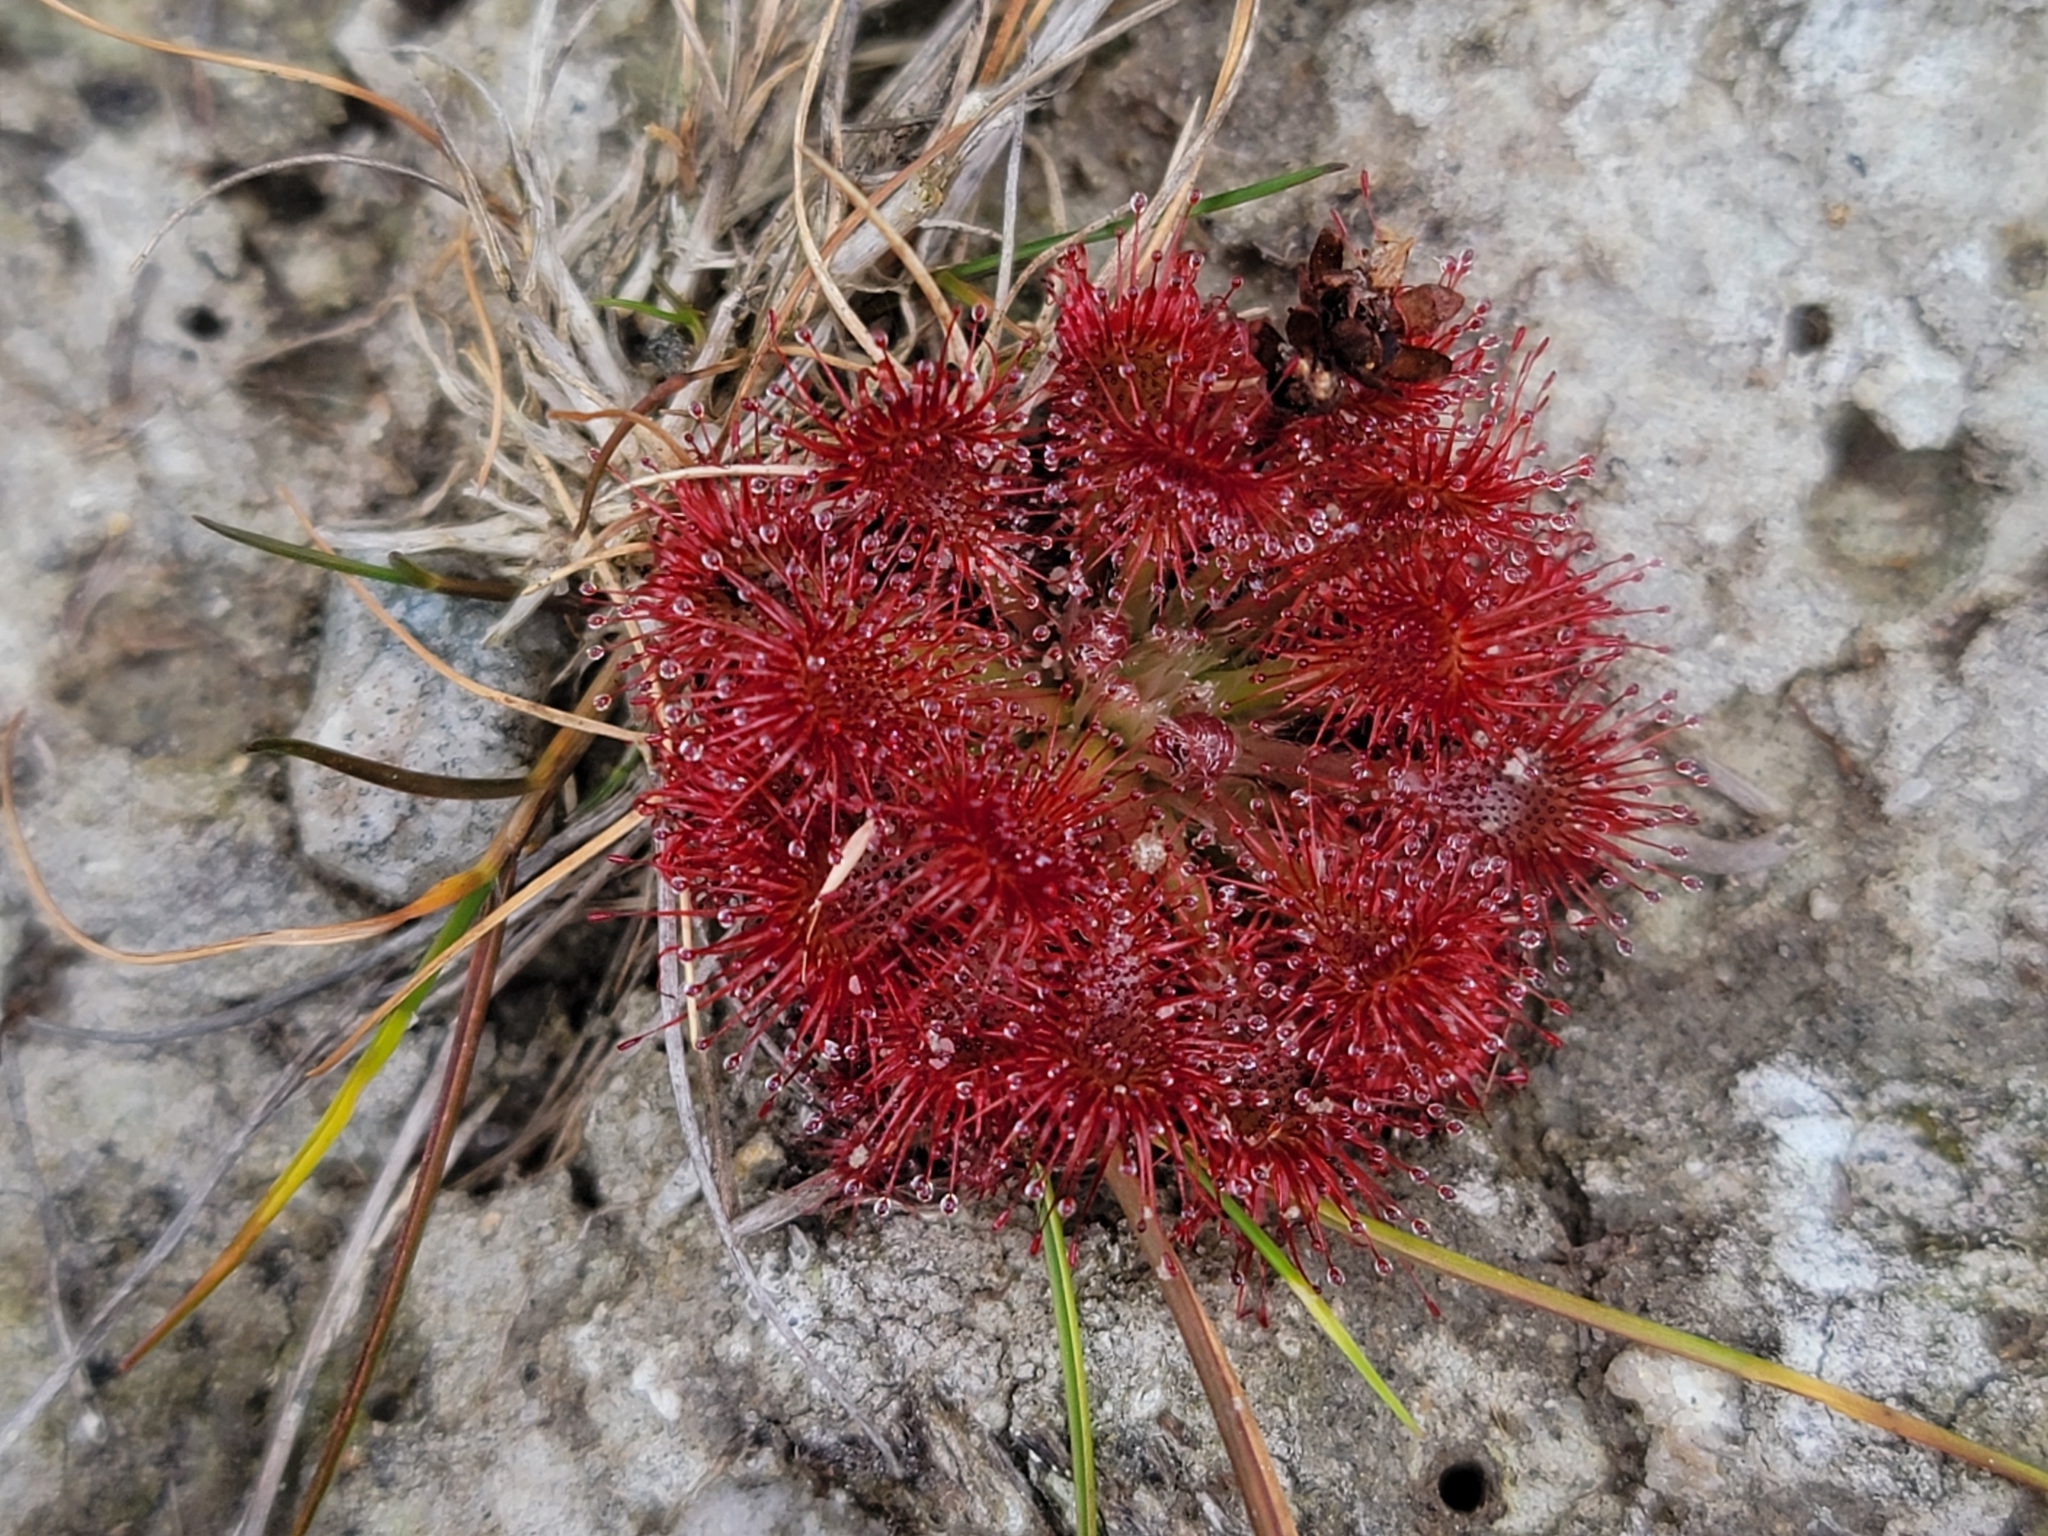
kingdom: Plantae
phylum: Tracheophyta
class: Magnoliopsida
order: Caryophyllales
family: Droseraceae
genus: Drosera
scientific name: Drosera spatulata
